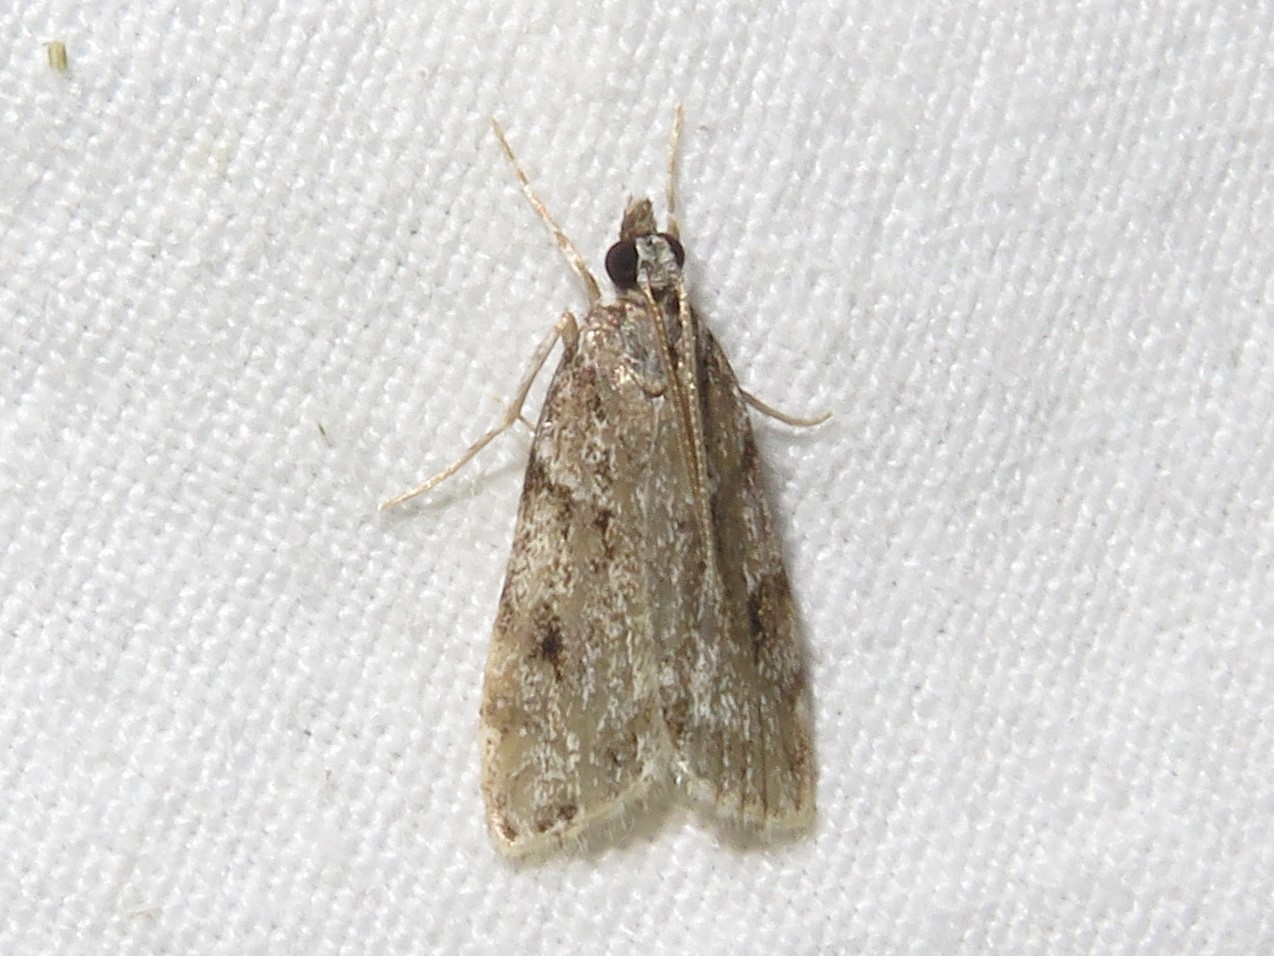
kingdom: Animalia
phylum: Arthropoda
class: Insecta
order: Lepidoptera
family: Crambidae
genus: Scoparia
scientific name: Scoparia biplagialis
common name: Double-striped scoparia moth
